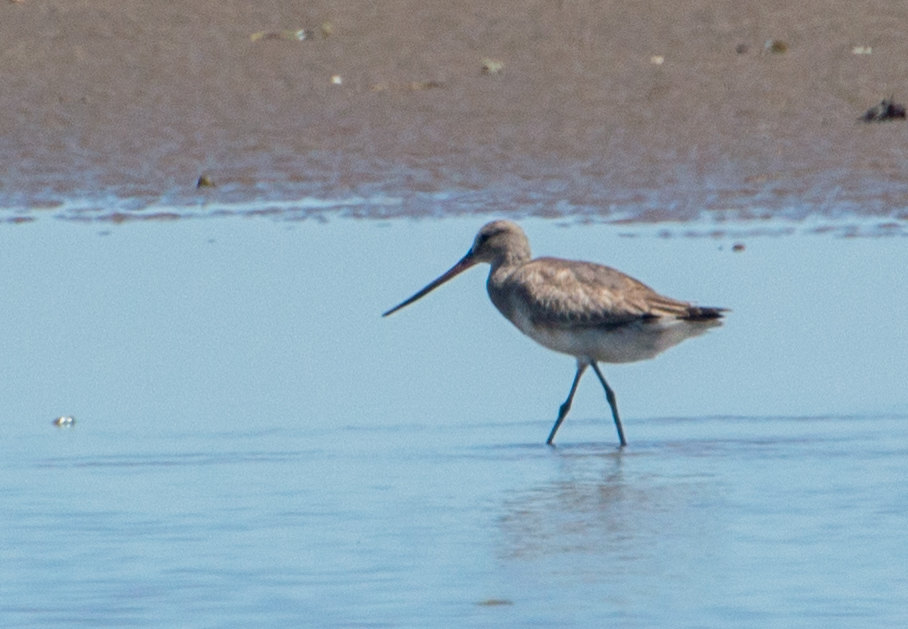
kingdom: Animalia
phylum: Chordata
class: Aves
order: Charadriiformes
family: Scolopacidae
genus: Limosa
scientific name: Limosa haemastica
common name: Hudsonian godwit
